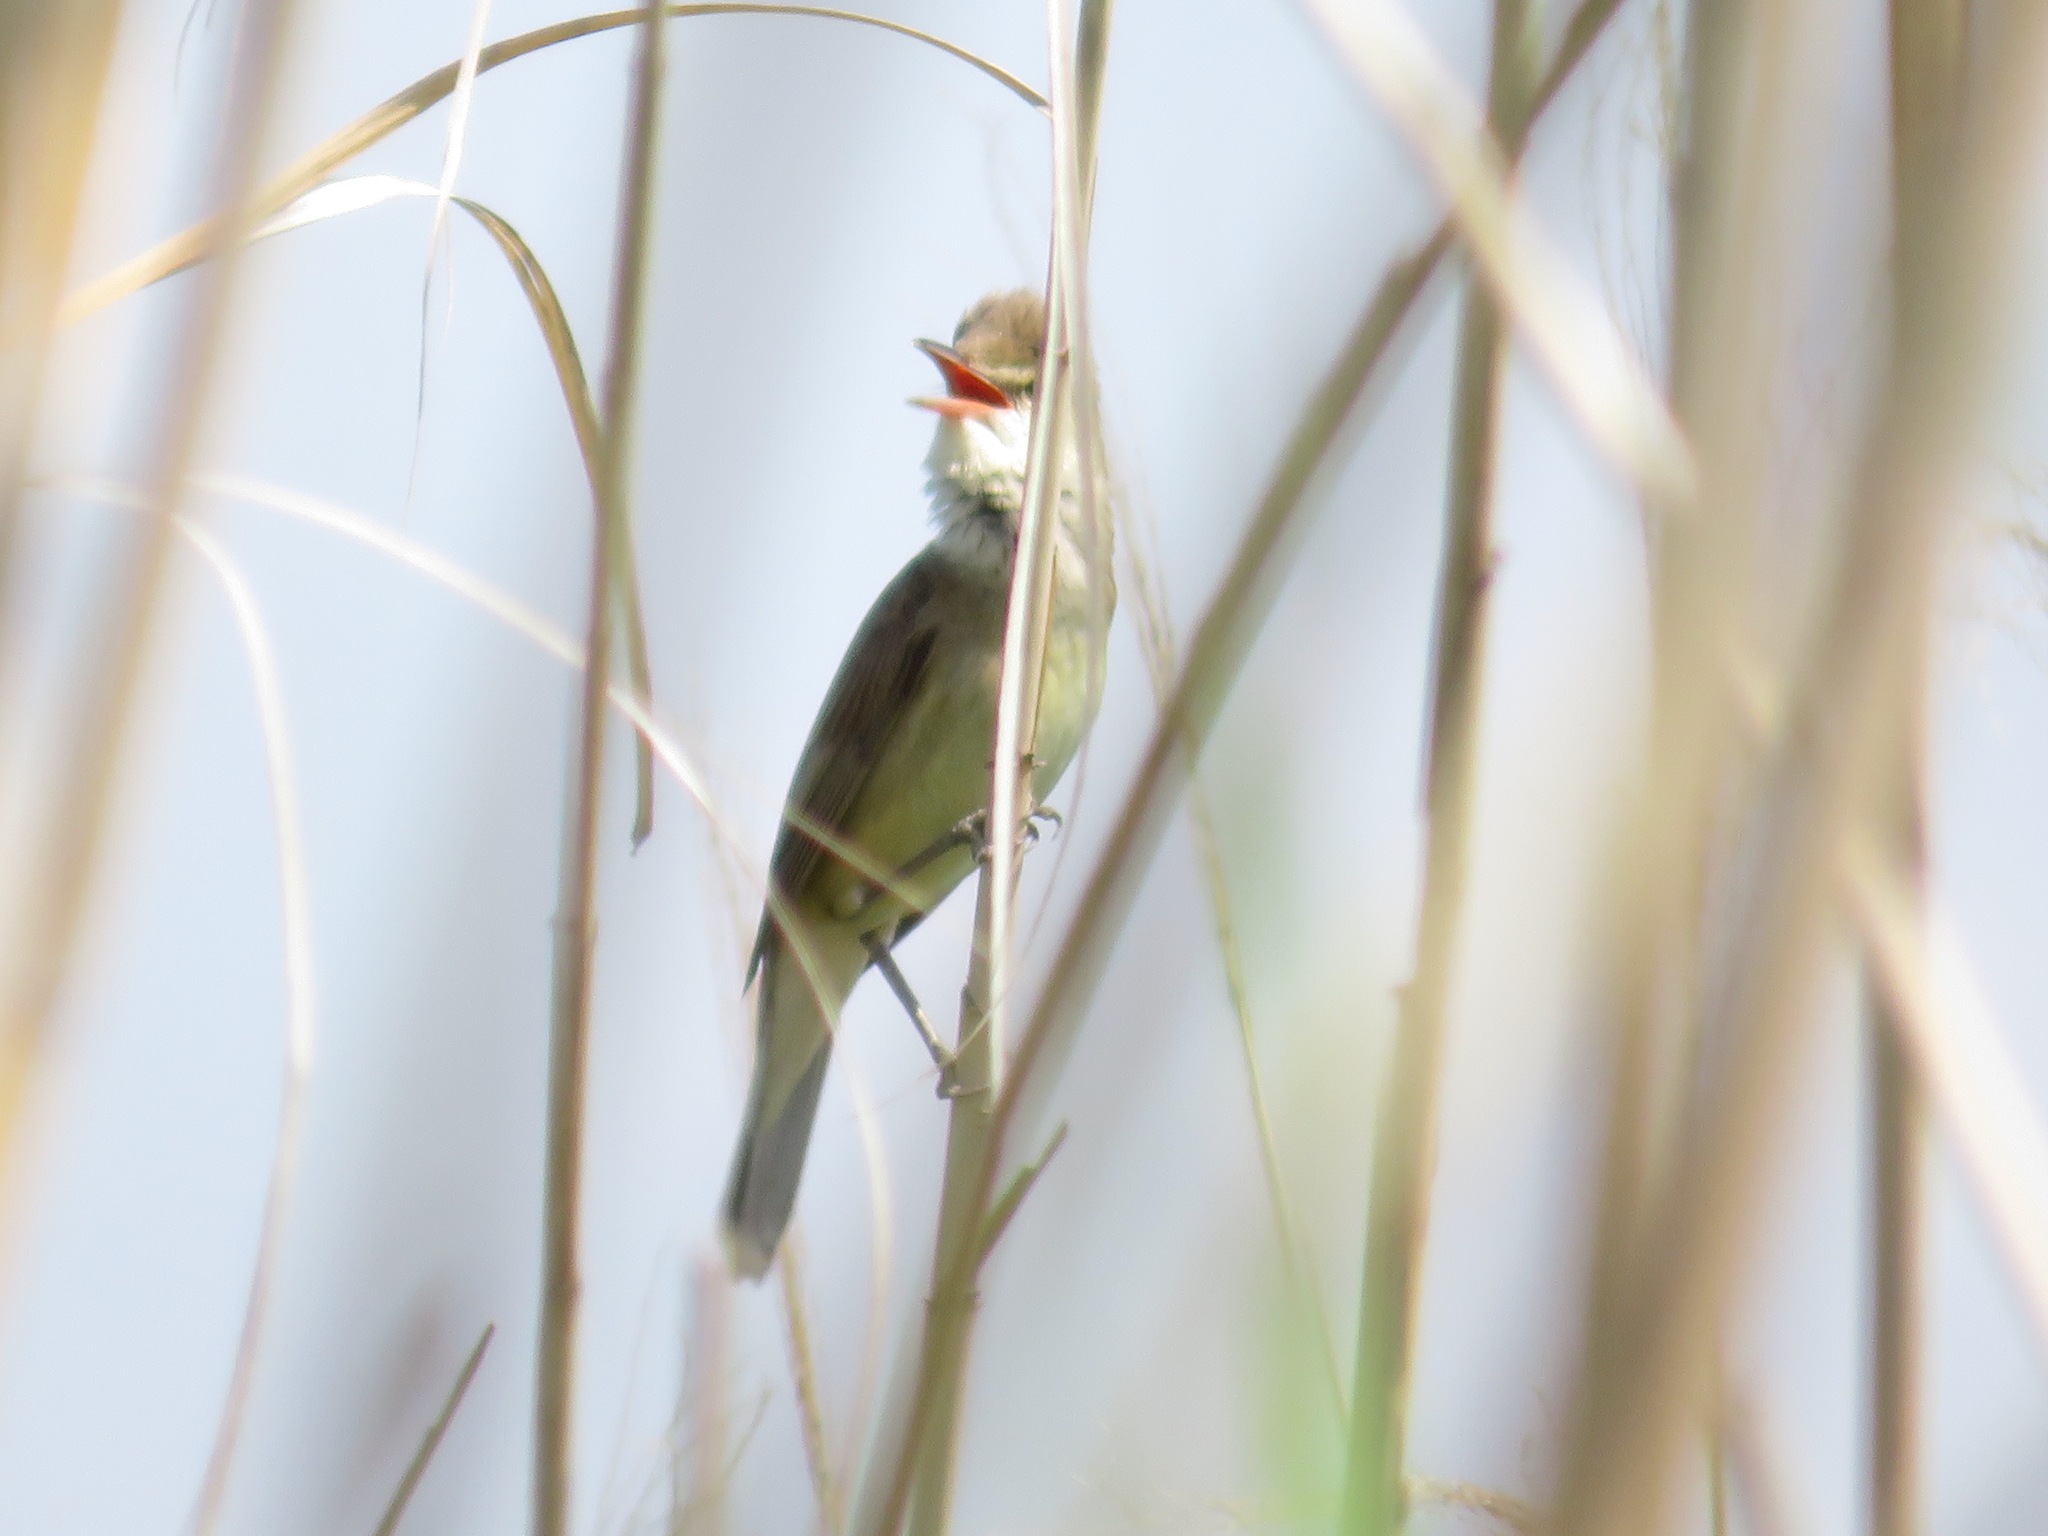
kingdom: Animalia
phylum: Chordata
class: Aves
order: Passeriformes
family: Acrocephalidae
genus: Acrocephalus
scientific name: Acrocephalus orientalis
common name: Oriental reed warbler
